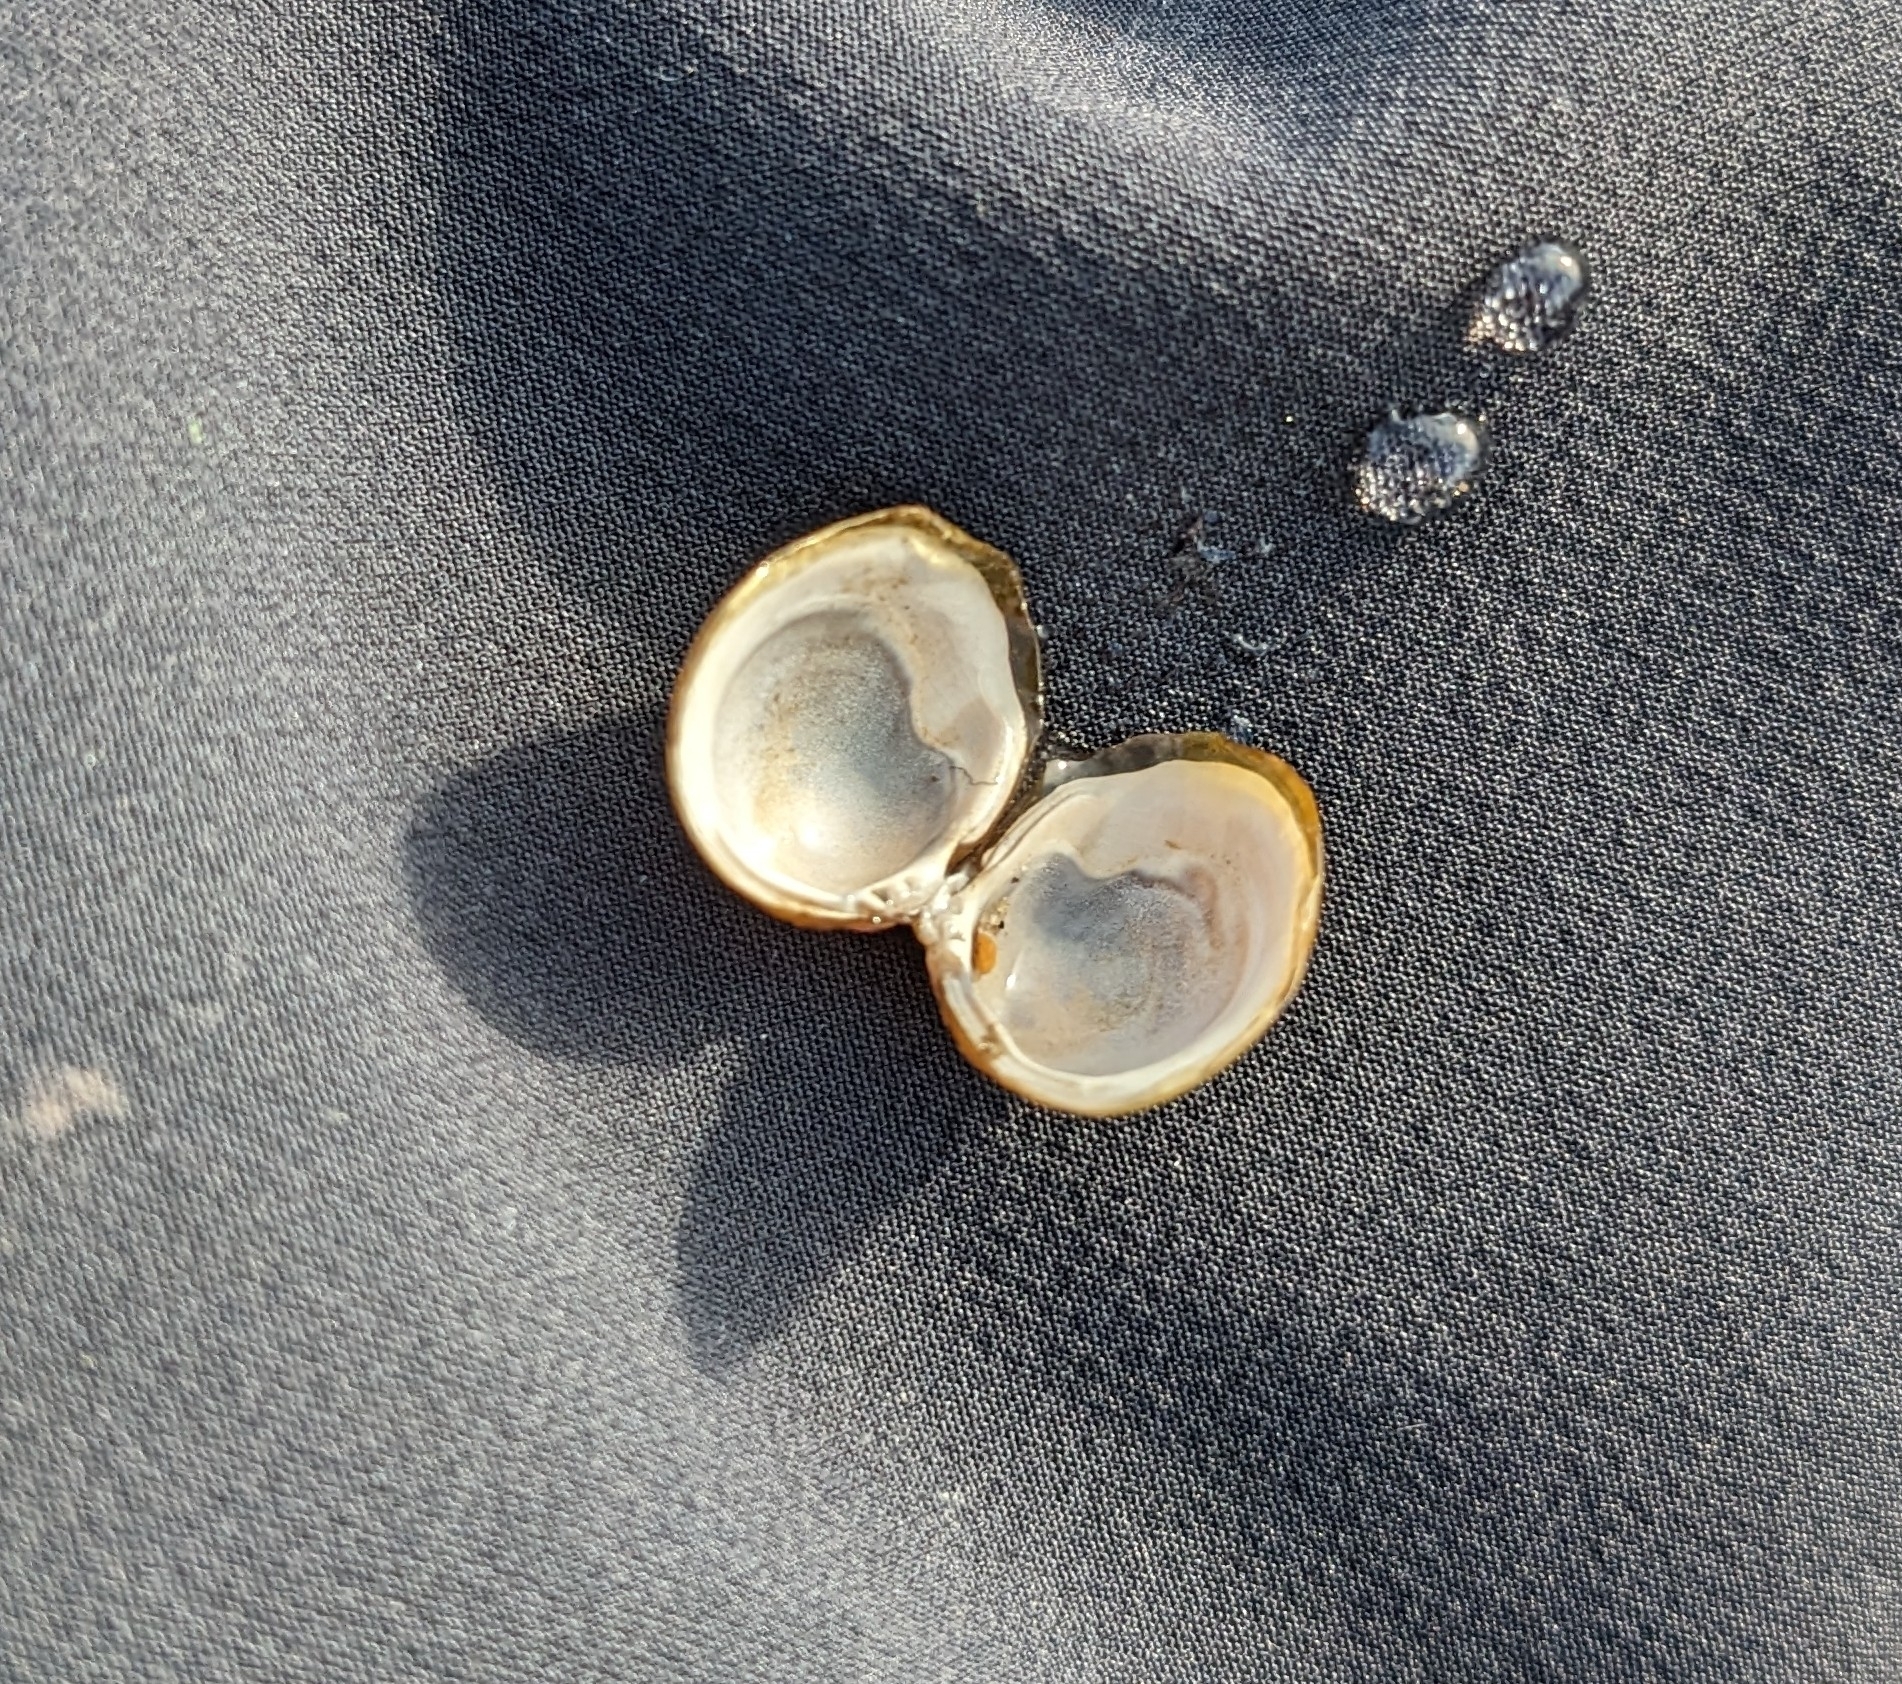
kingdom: Animalia
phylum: Mollusca
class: Bivalvia
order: Venerida
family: Cyrenidae
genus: Corbicula
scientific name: Corbicula fluminea
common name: Asian clam
